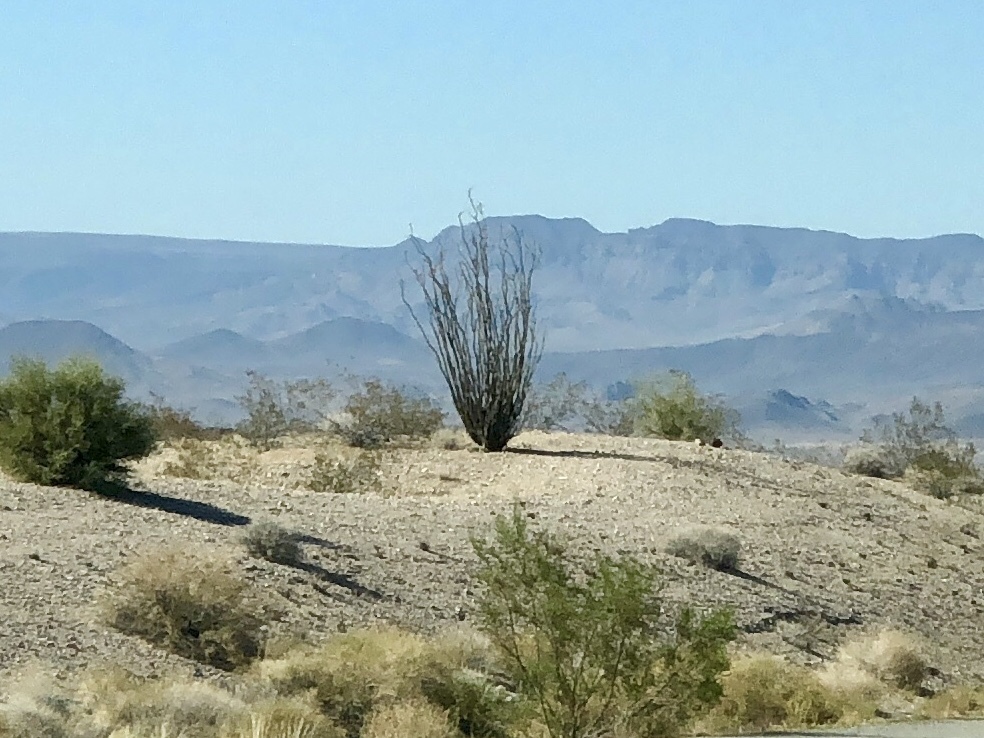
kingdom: Plantae
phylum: Tracheophyta
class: Magnoliopsida
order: Ericales
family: Fouquieriaceae
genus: Fouquieria
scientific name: Fouquieria splendens
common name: Vine-cactus
